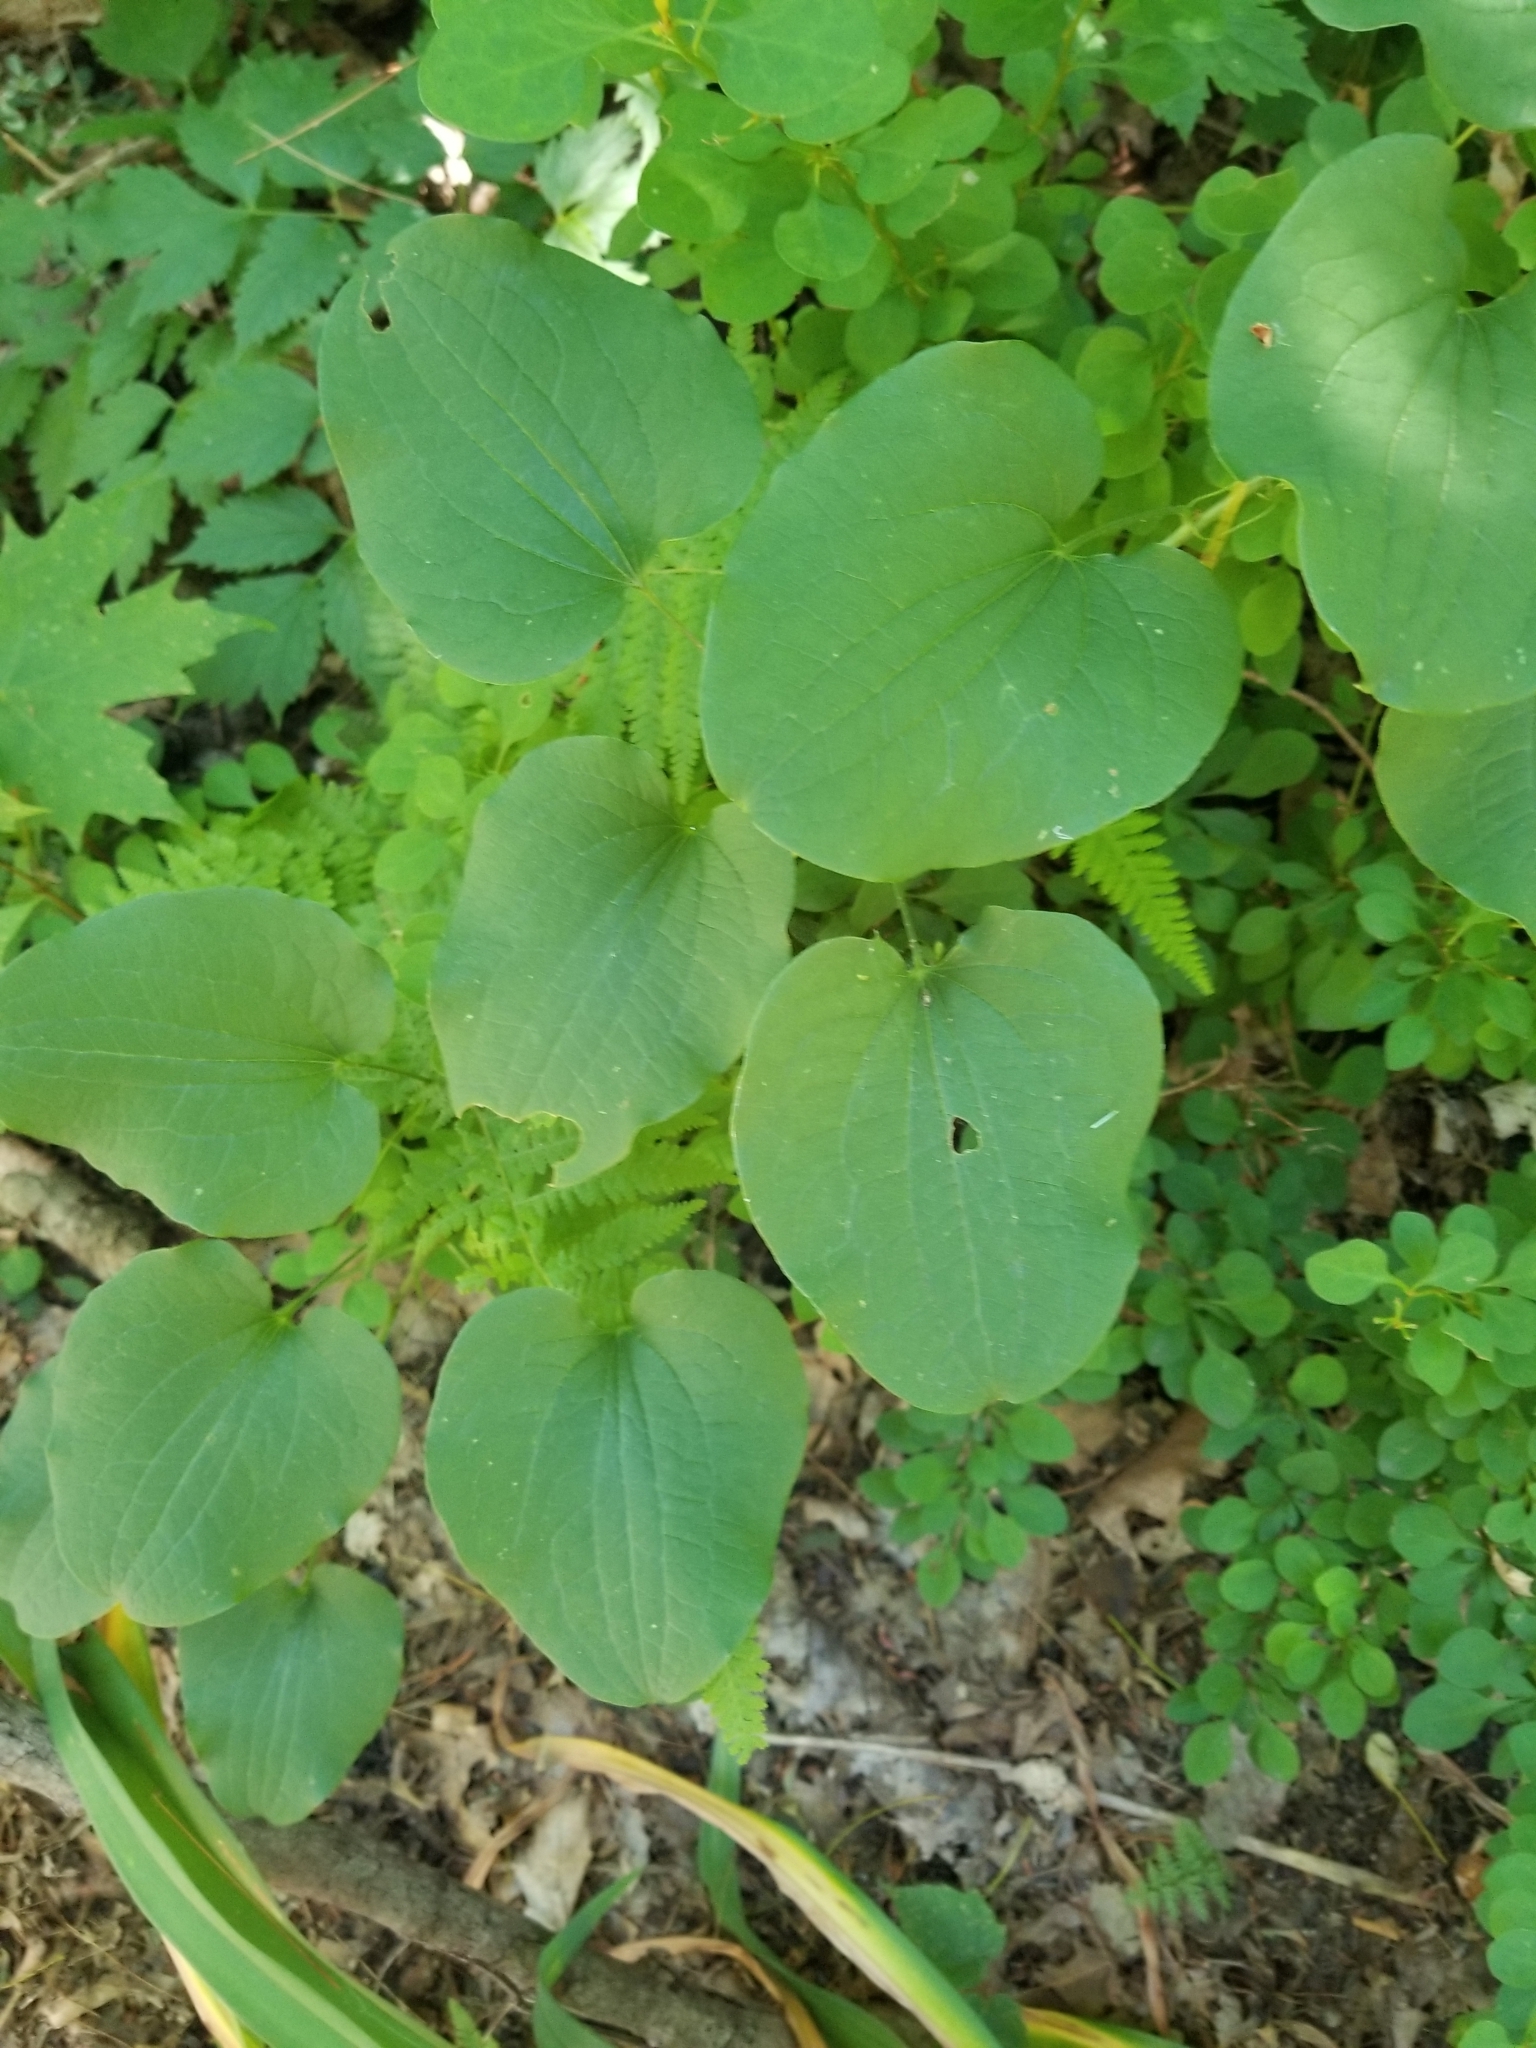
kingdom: Plantae
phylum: Tracheophyta
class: Liliopsida
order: Liliales
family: Smilacaceae
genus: Smilax
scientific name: Smilax herbacea
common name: Jacob's-ladder
